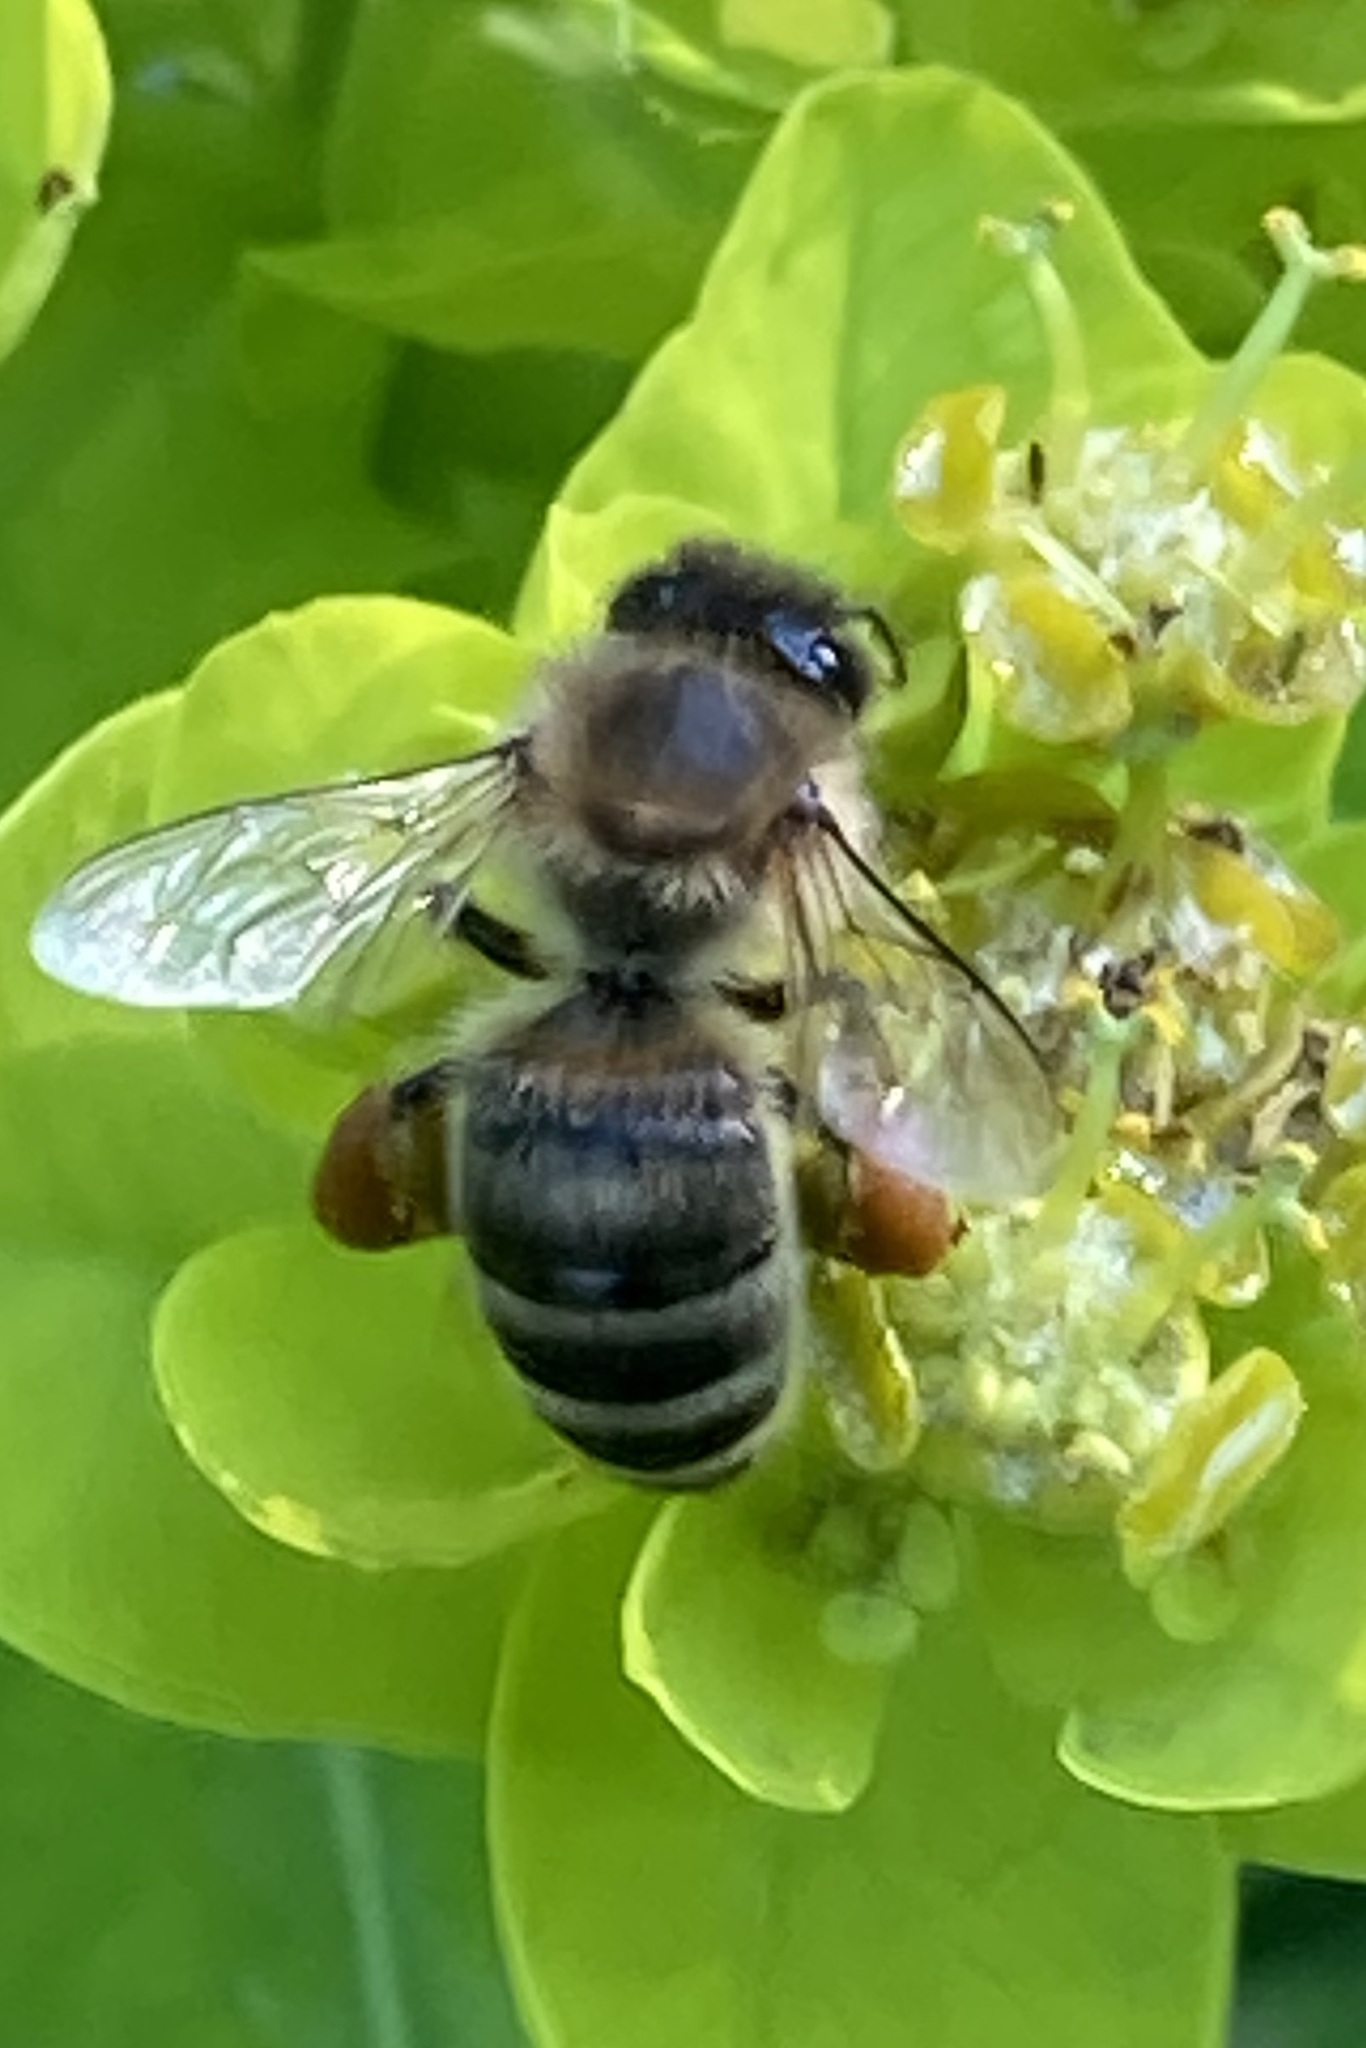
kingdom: Animalia
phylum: Arthropoda
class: Insecta
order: Hymenoptera
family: Apidae
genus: Apis
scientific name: Apis mellifera
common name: Honey bee
